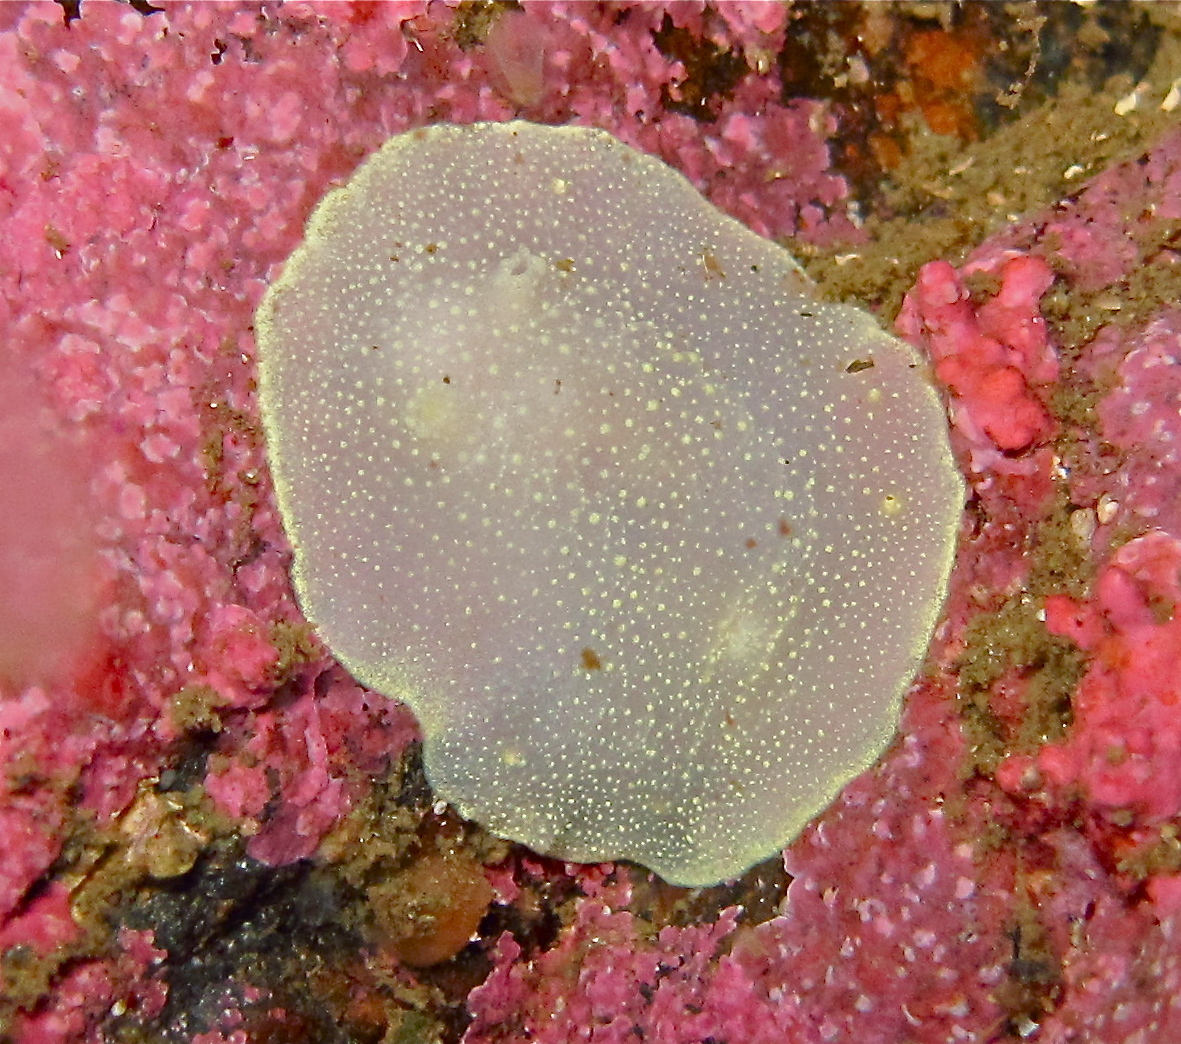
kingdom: Animalia
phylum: Mollusca
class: Gastropoda
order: Nudibranchia
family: Cadlinidae
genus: Cadlina
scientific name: Cadlina laevis
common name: White atlantic cadlina
